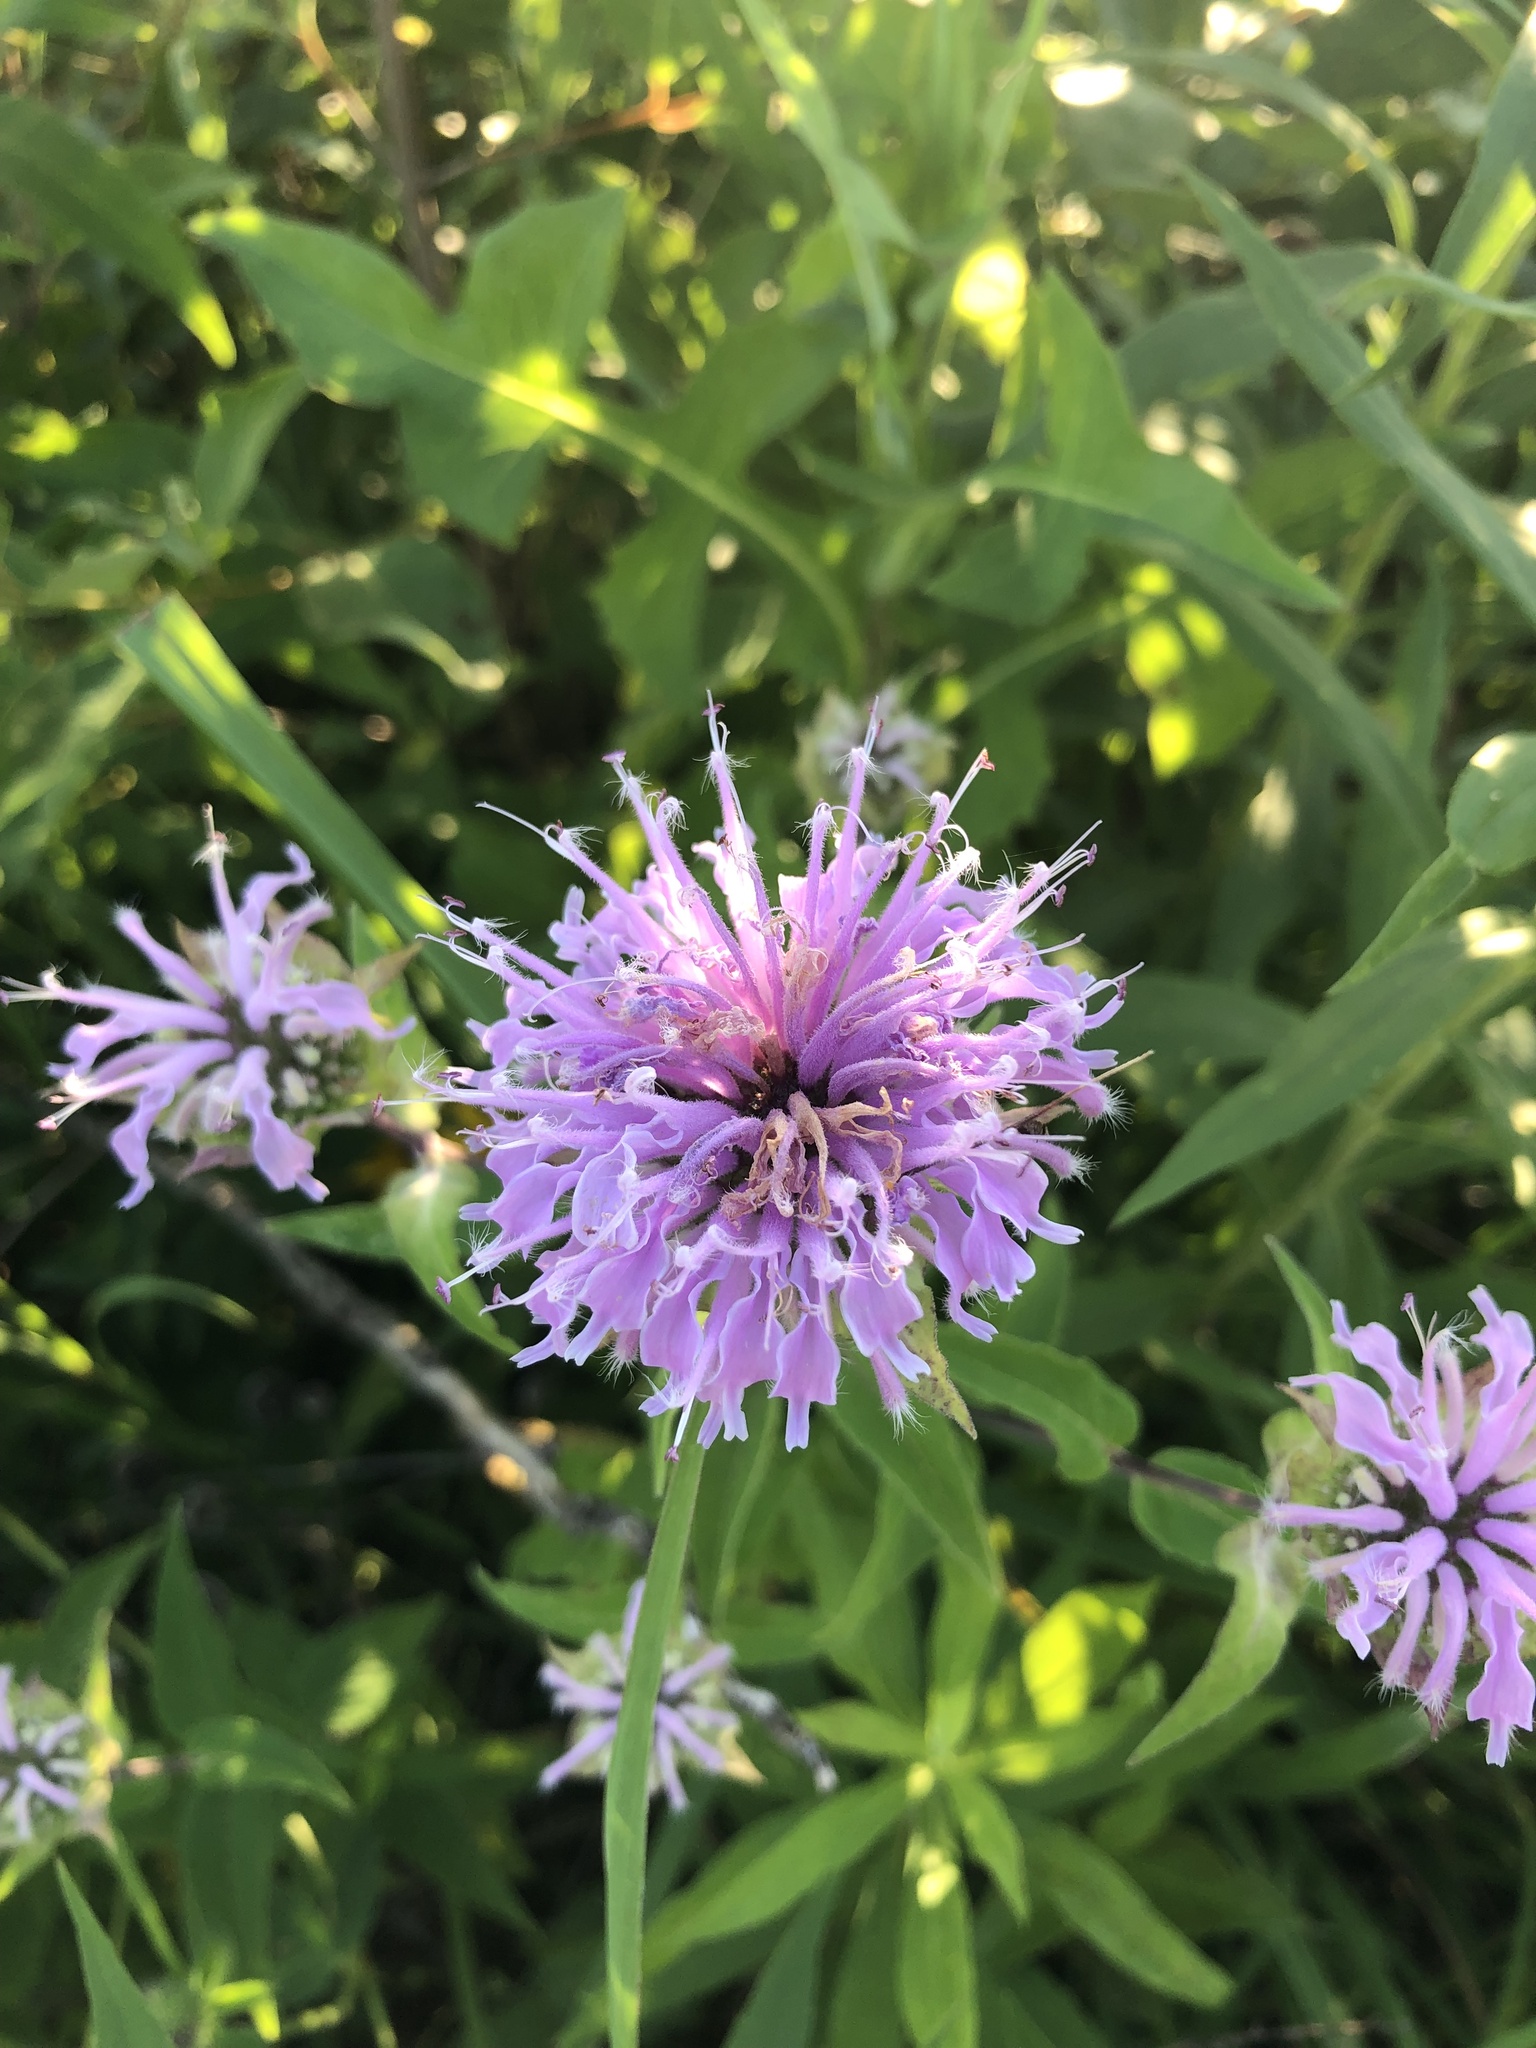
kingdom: Plantae
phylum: Tracheophyta
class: Magnoliopsida
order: Lamiales
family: Lamiaceae
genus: Monarda
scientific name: Monarda fistulosa
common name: Purple beebalm
